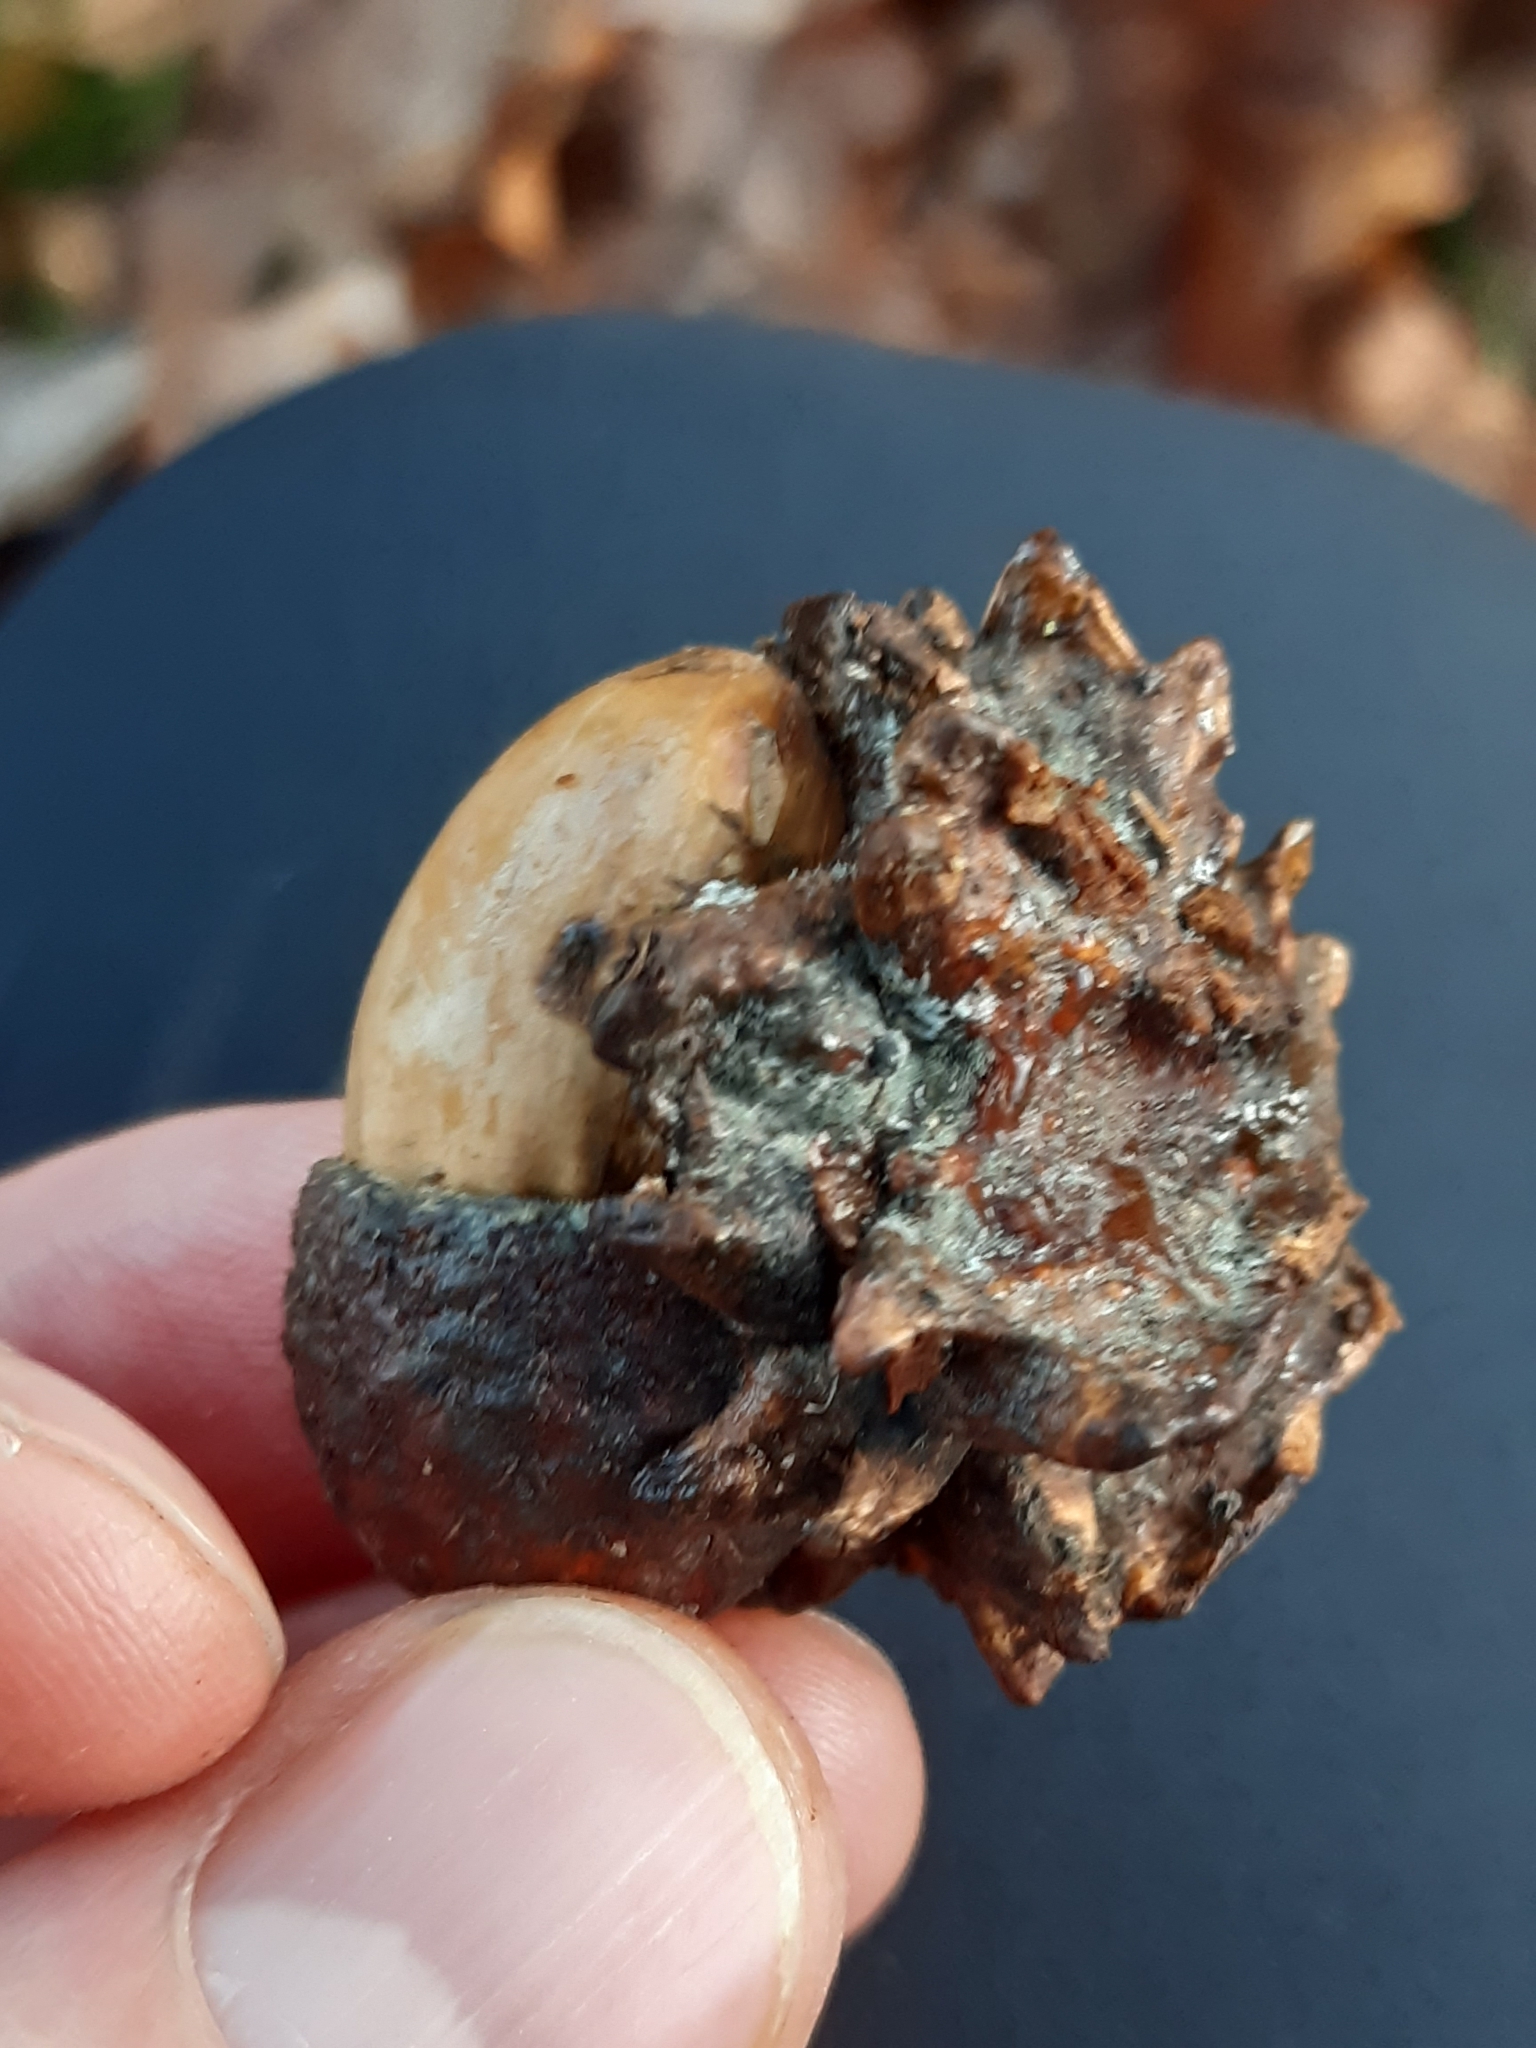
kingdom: Animalia
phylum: Arthropoda
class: Insecta
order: Hymenoptera
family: Cynipidae
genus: Andricus
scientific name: Andricus quercuscalicis
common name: Knopper gall
